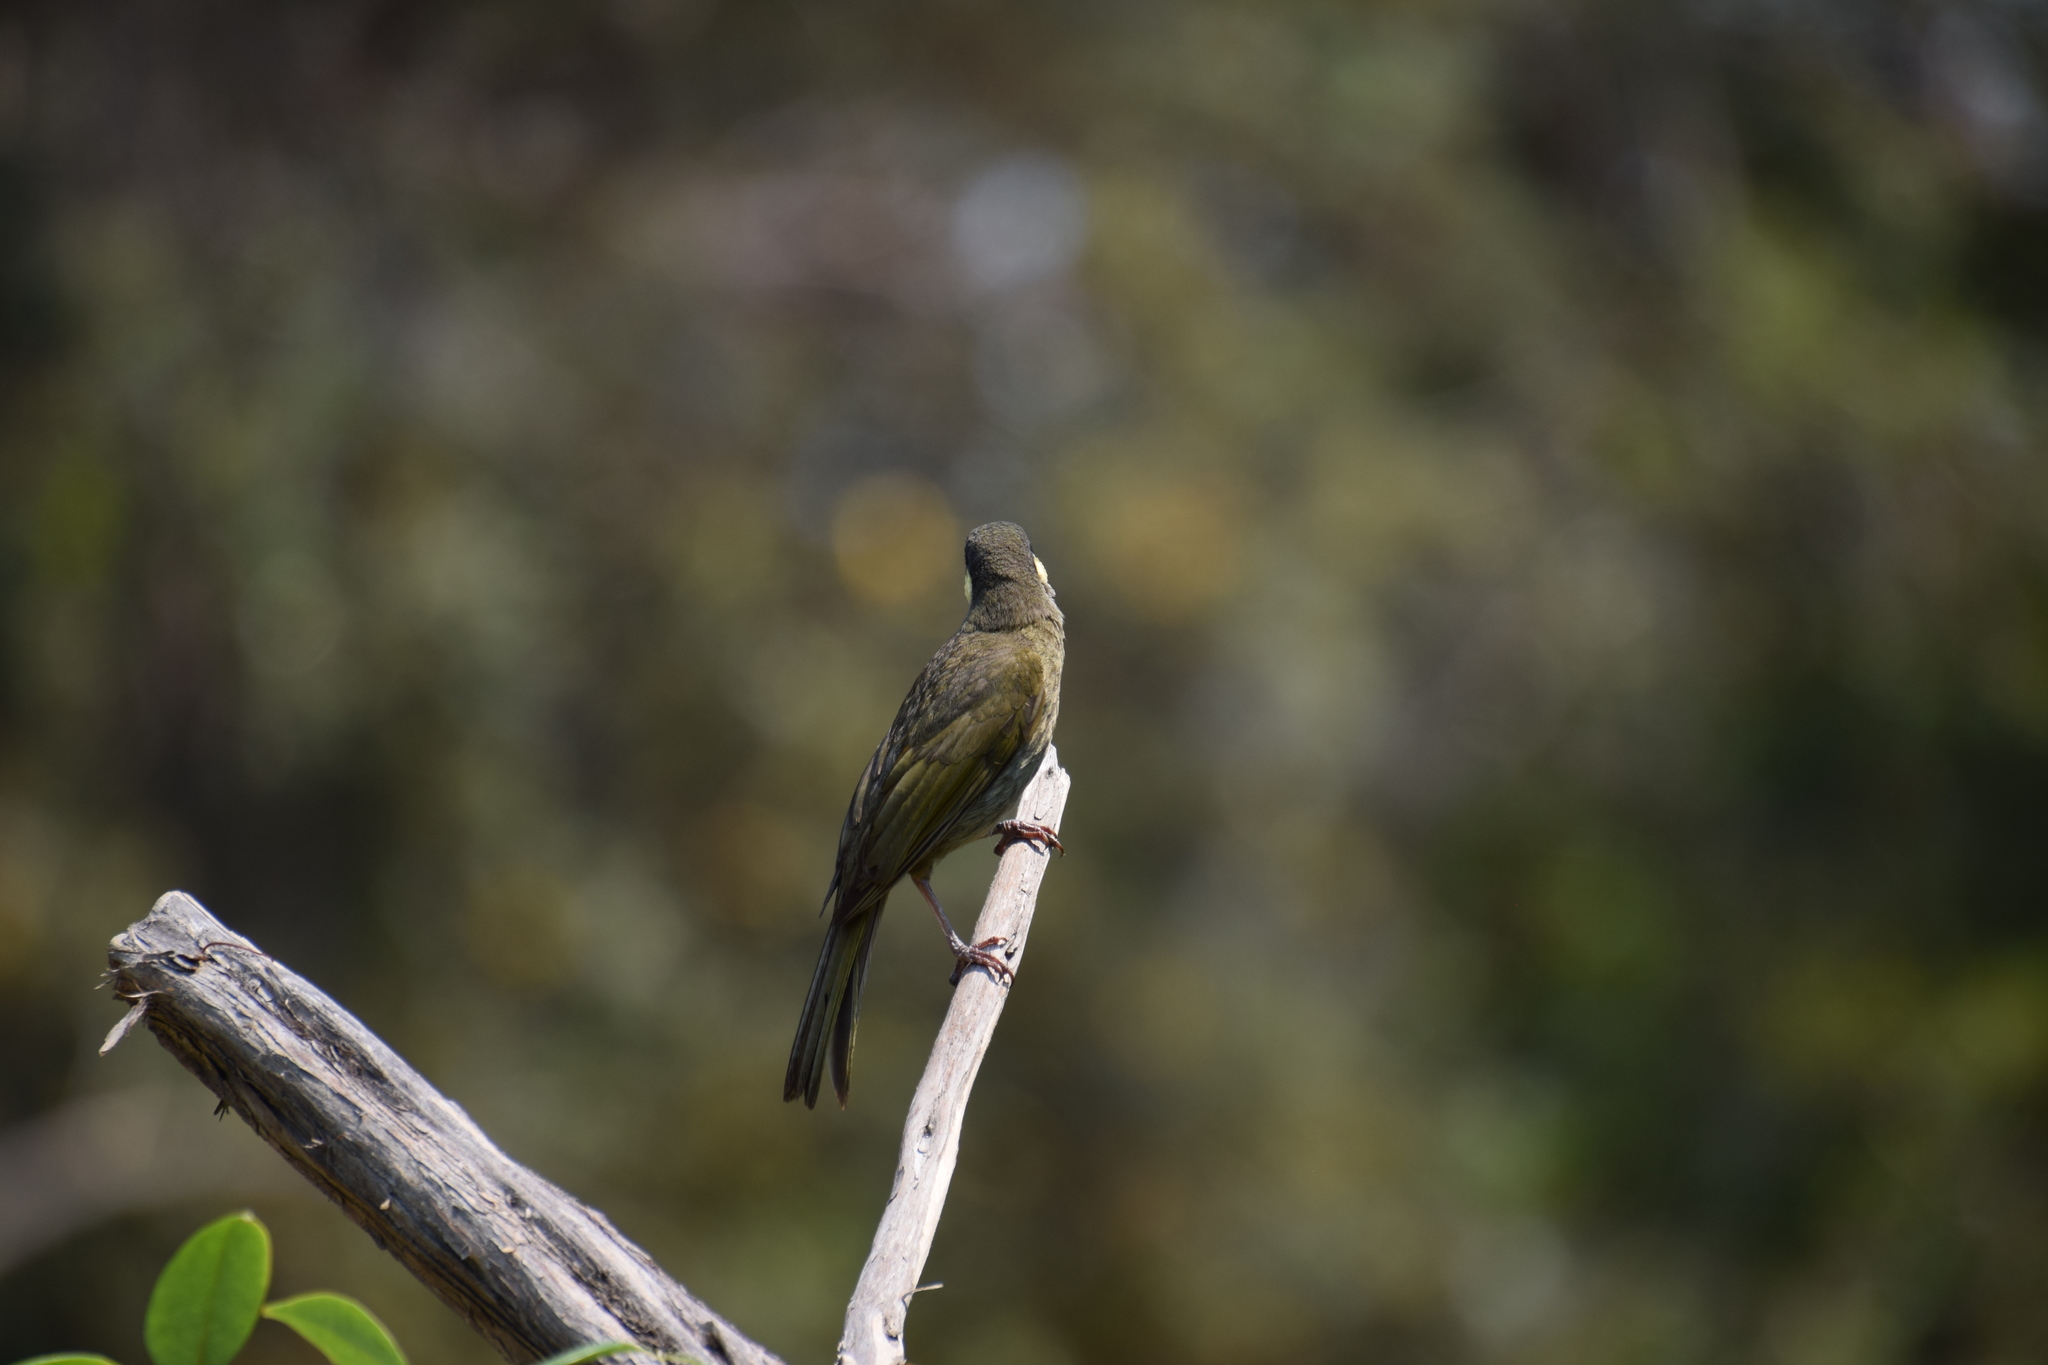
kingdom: Animalia
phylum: Chordata
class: Aves
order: Passeriformes
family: Meliphagidae
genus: Meliphaga
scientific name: Meliphaga lewinii
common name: Lewin's honeyeater
